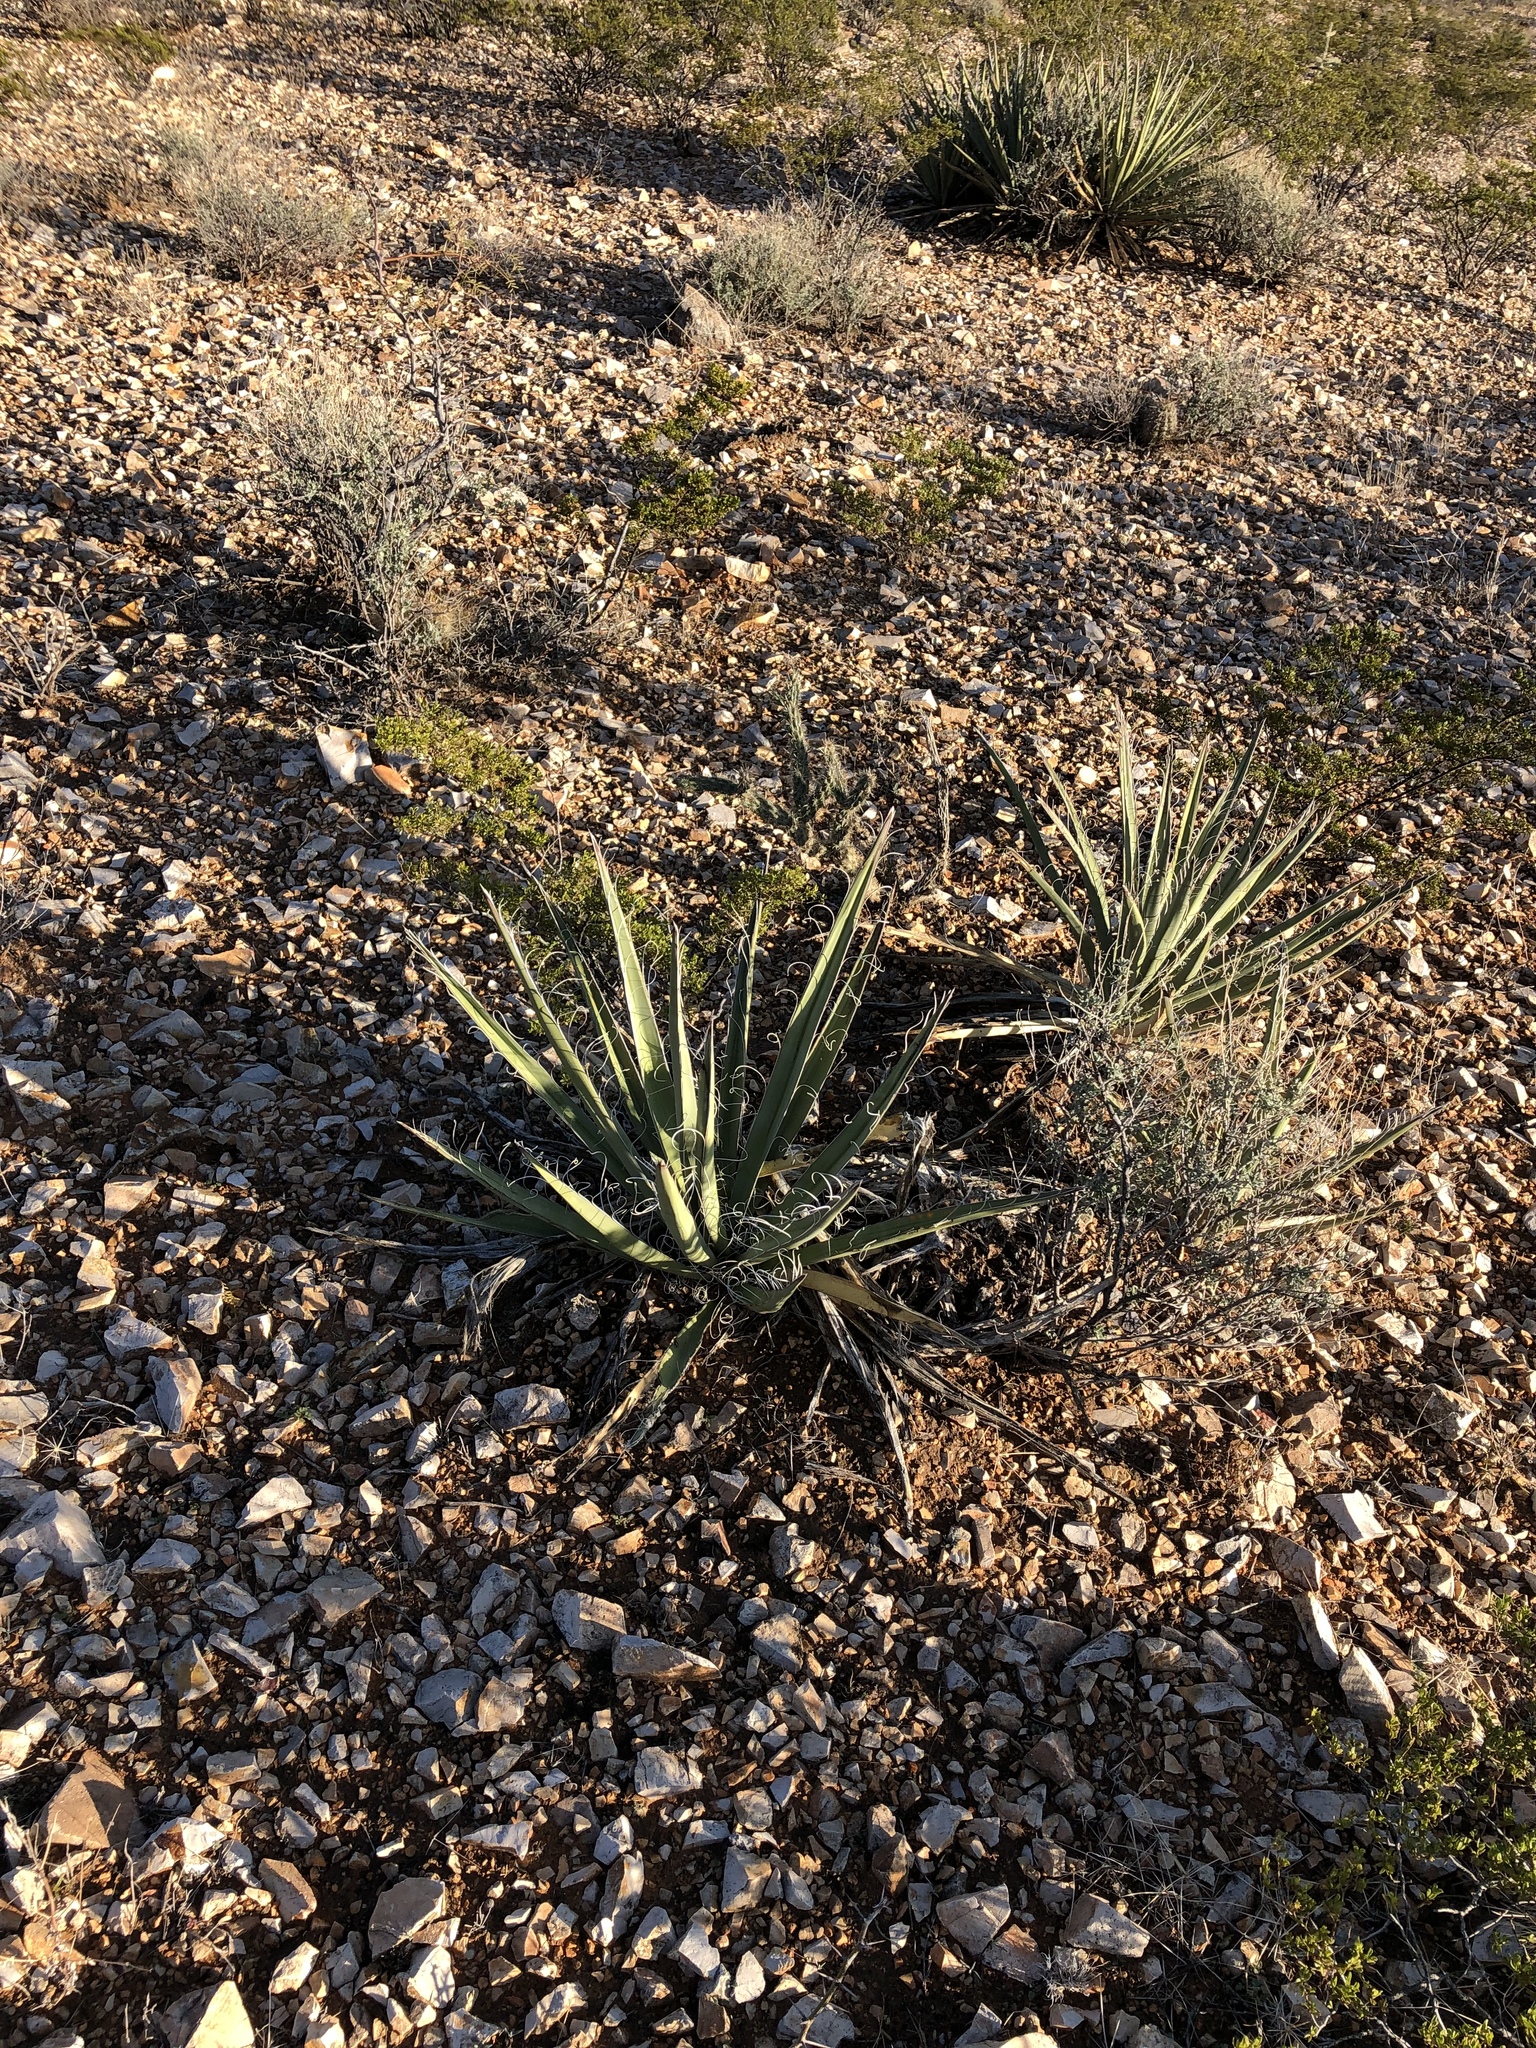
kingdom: Plantae
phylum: Tracheophyta
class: Liliopsida
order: Asparagales
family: Asparagaceae
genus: Yucca
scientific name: Yucca baccata
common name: Banana yucca
